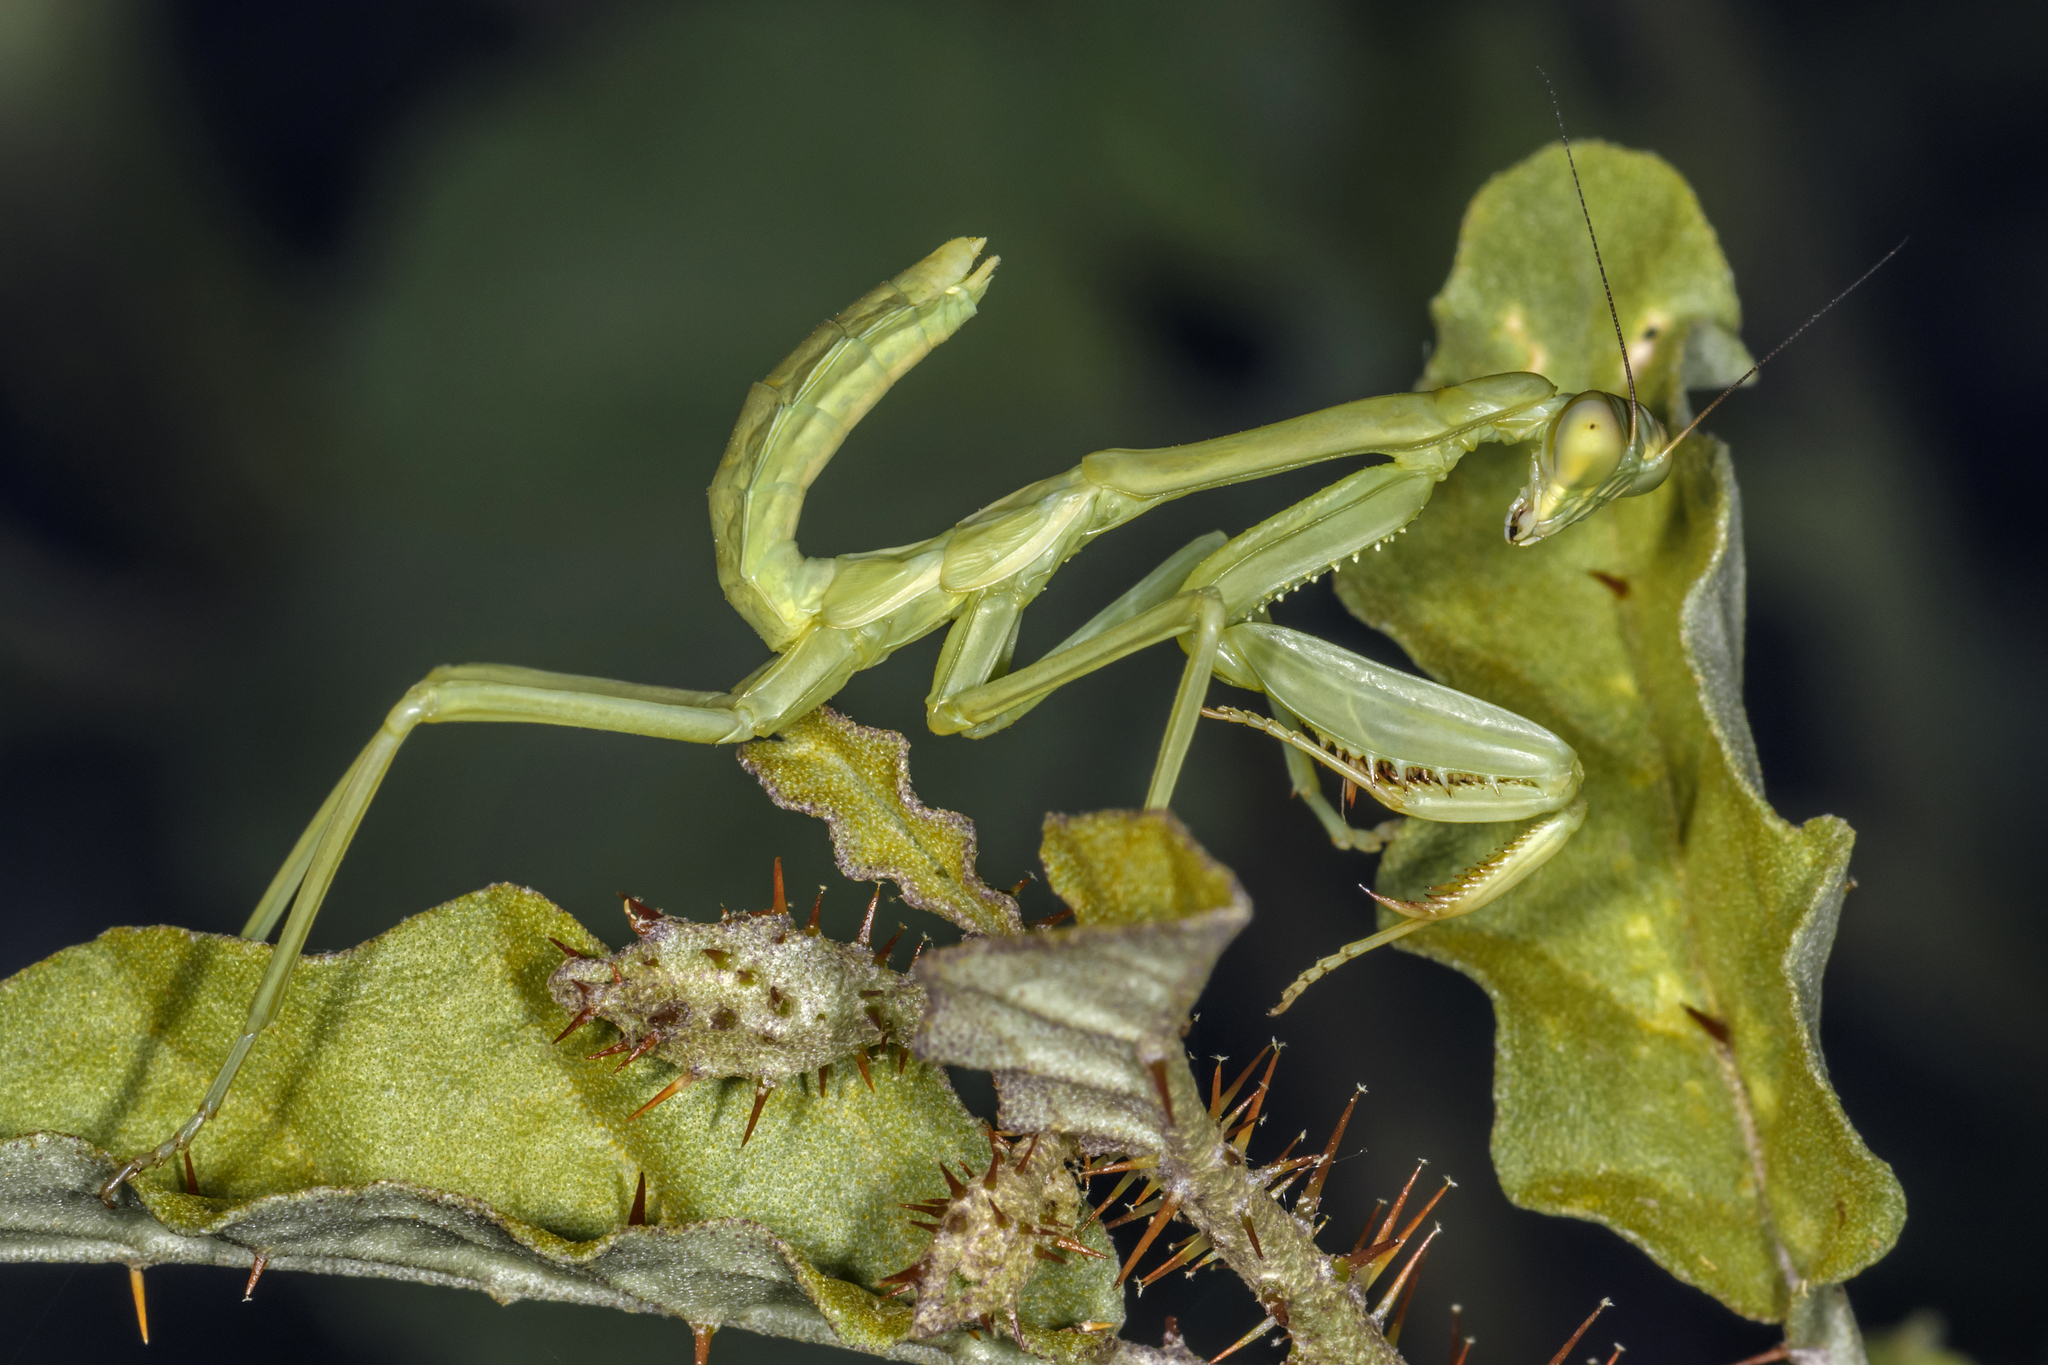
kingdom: Animalia
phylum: Arthropoda
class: Insecta
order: Mantodea
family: Mantidae
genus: Stagmatoptera
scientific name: Stagmatoptera hyaloptera
